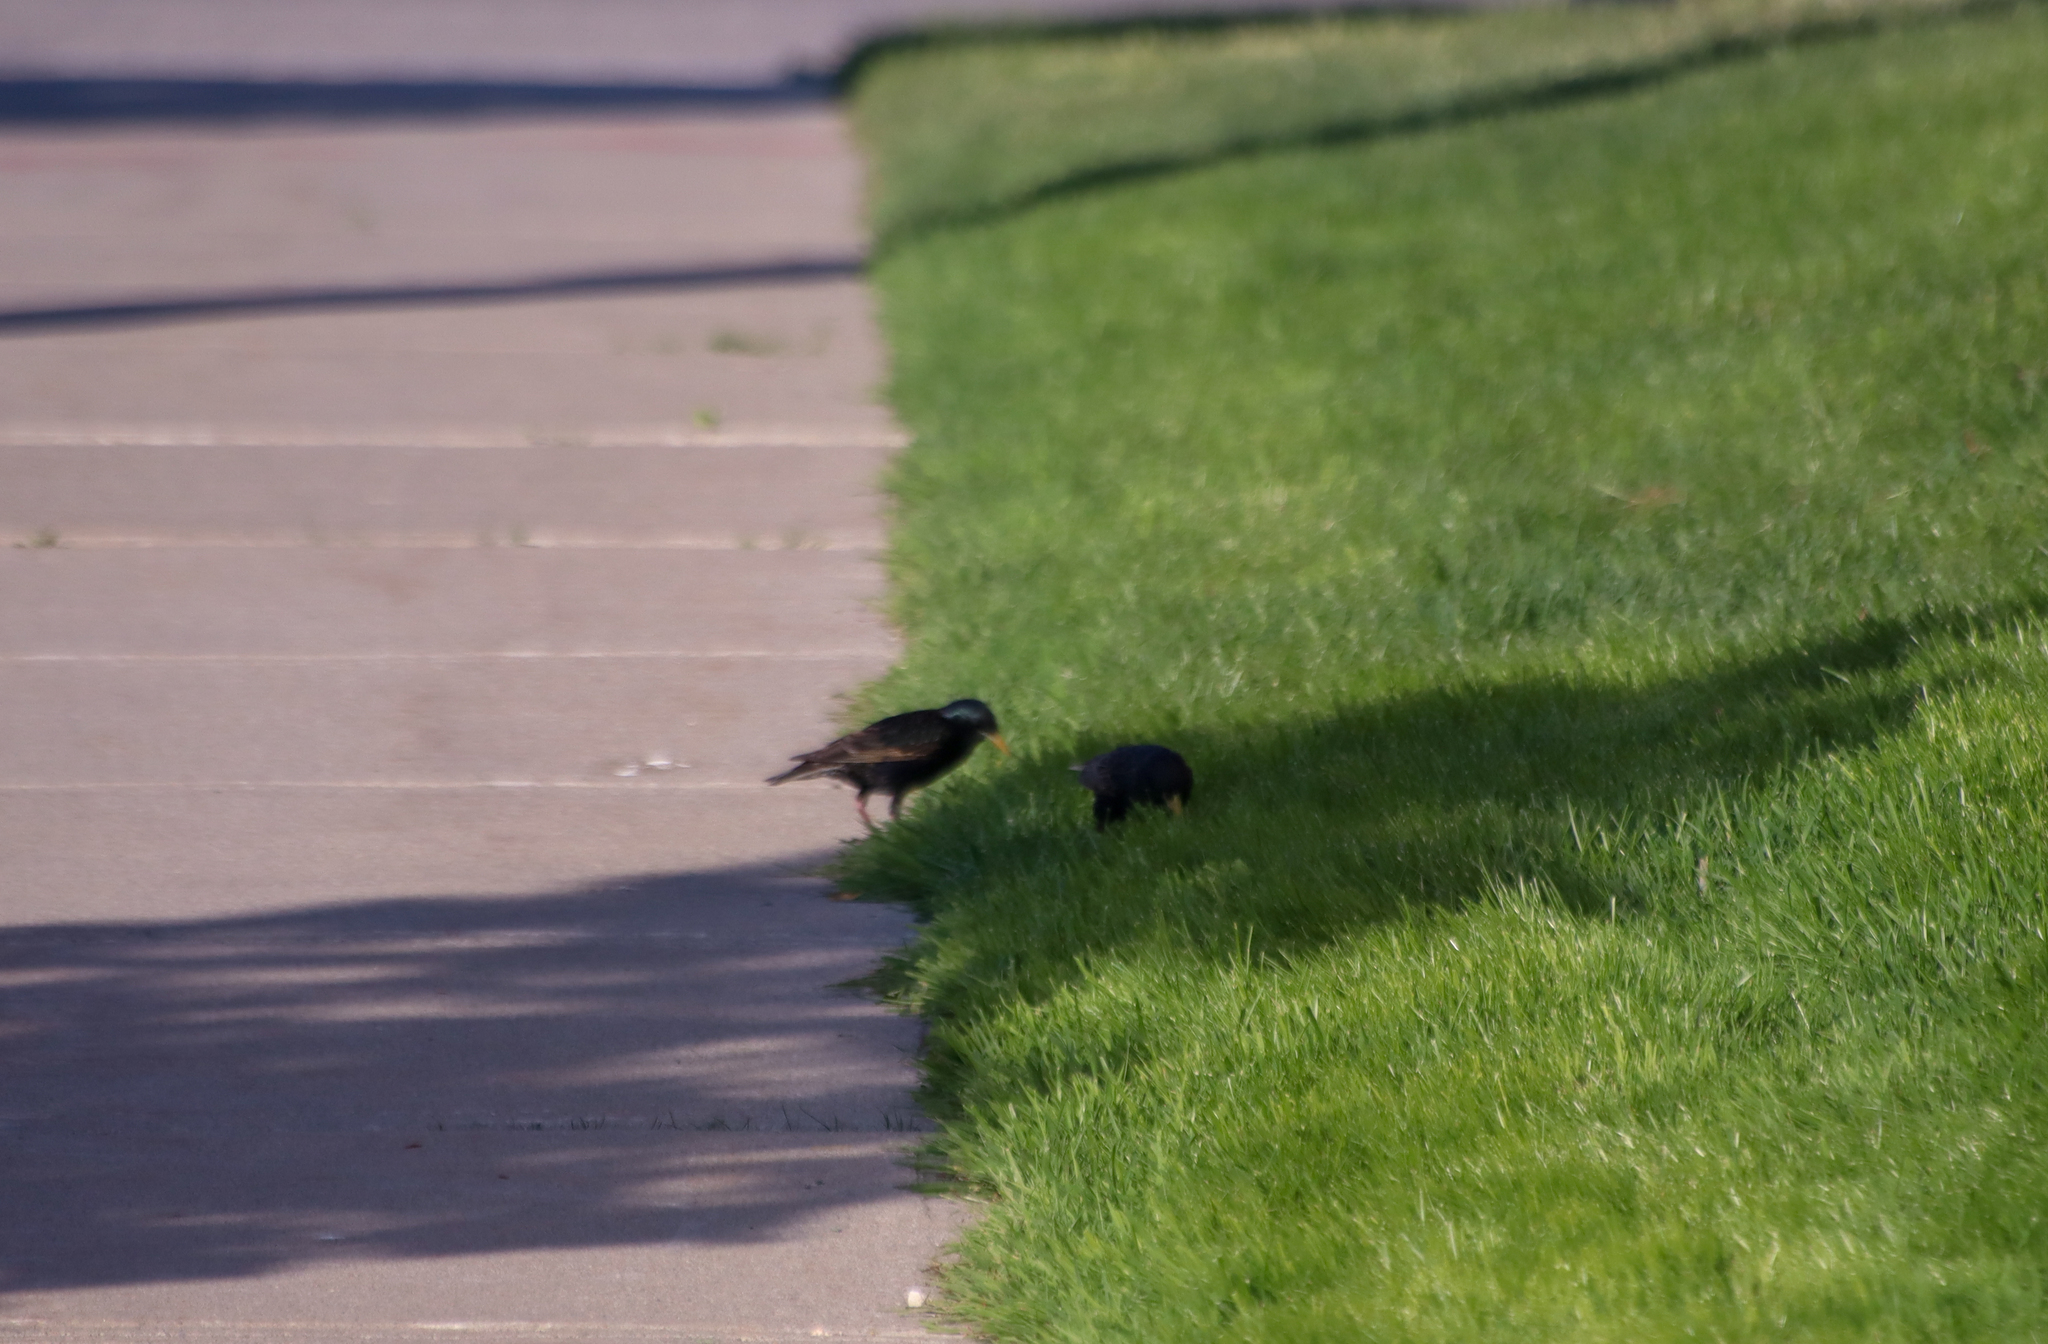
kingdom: Animalia
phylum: Chordata
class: Aves
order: Passeriformes
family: Sturnidae
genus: Sturnus
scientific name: Sturnus vulgaris
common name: Common starling
